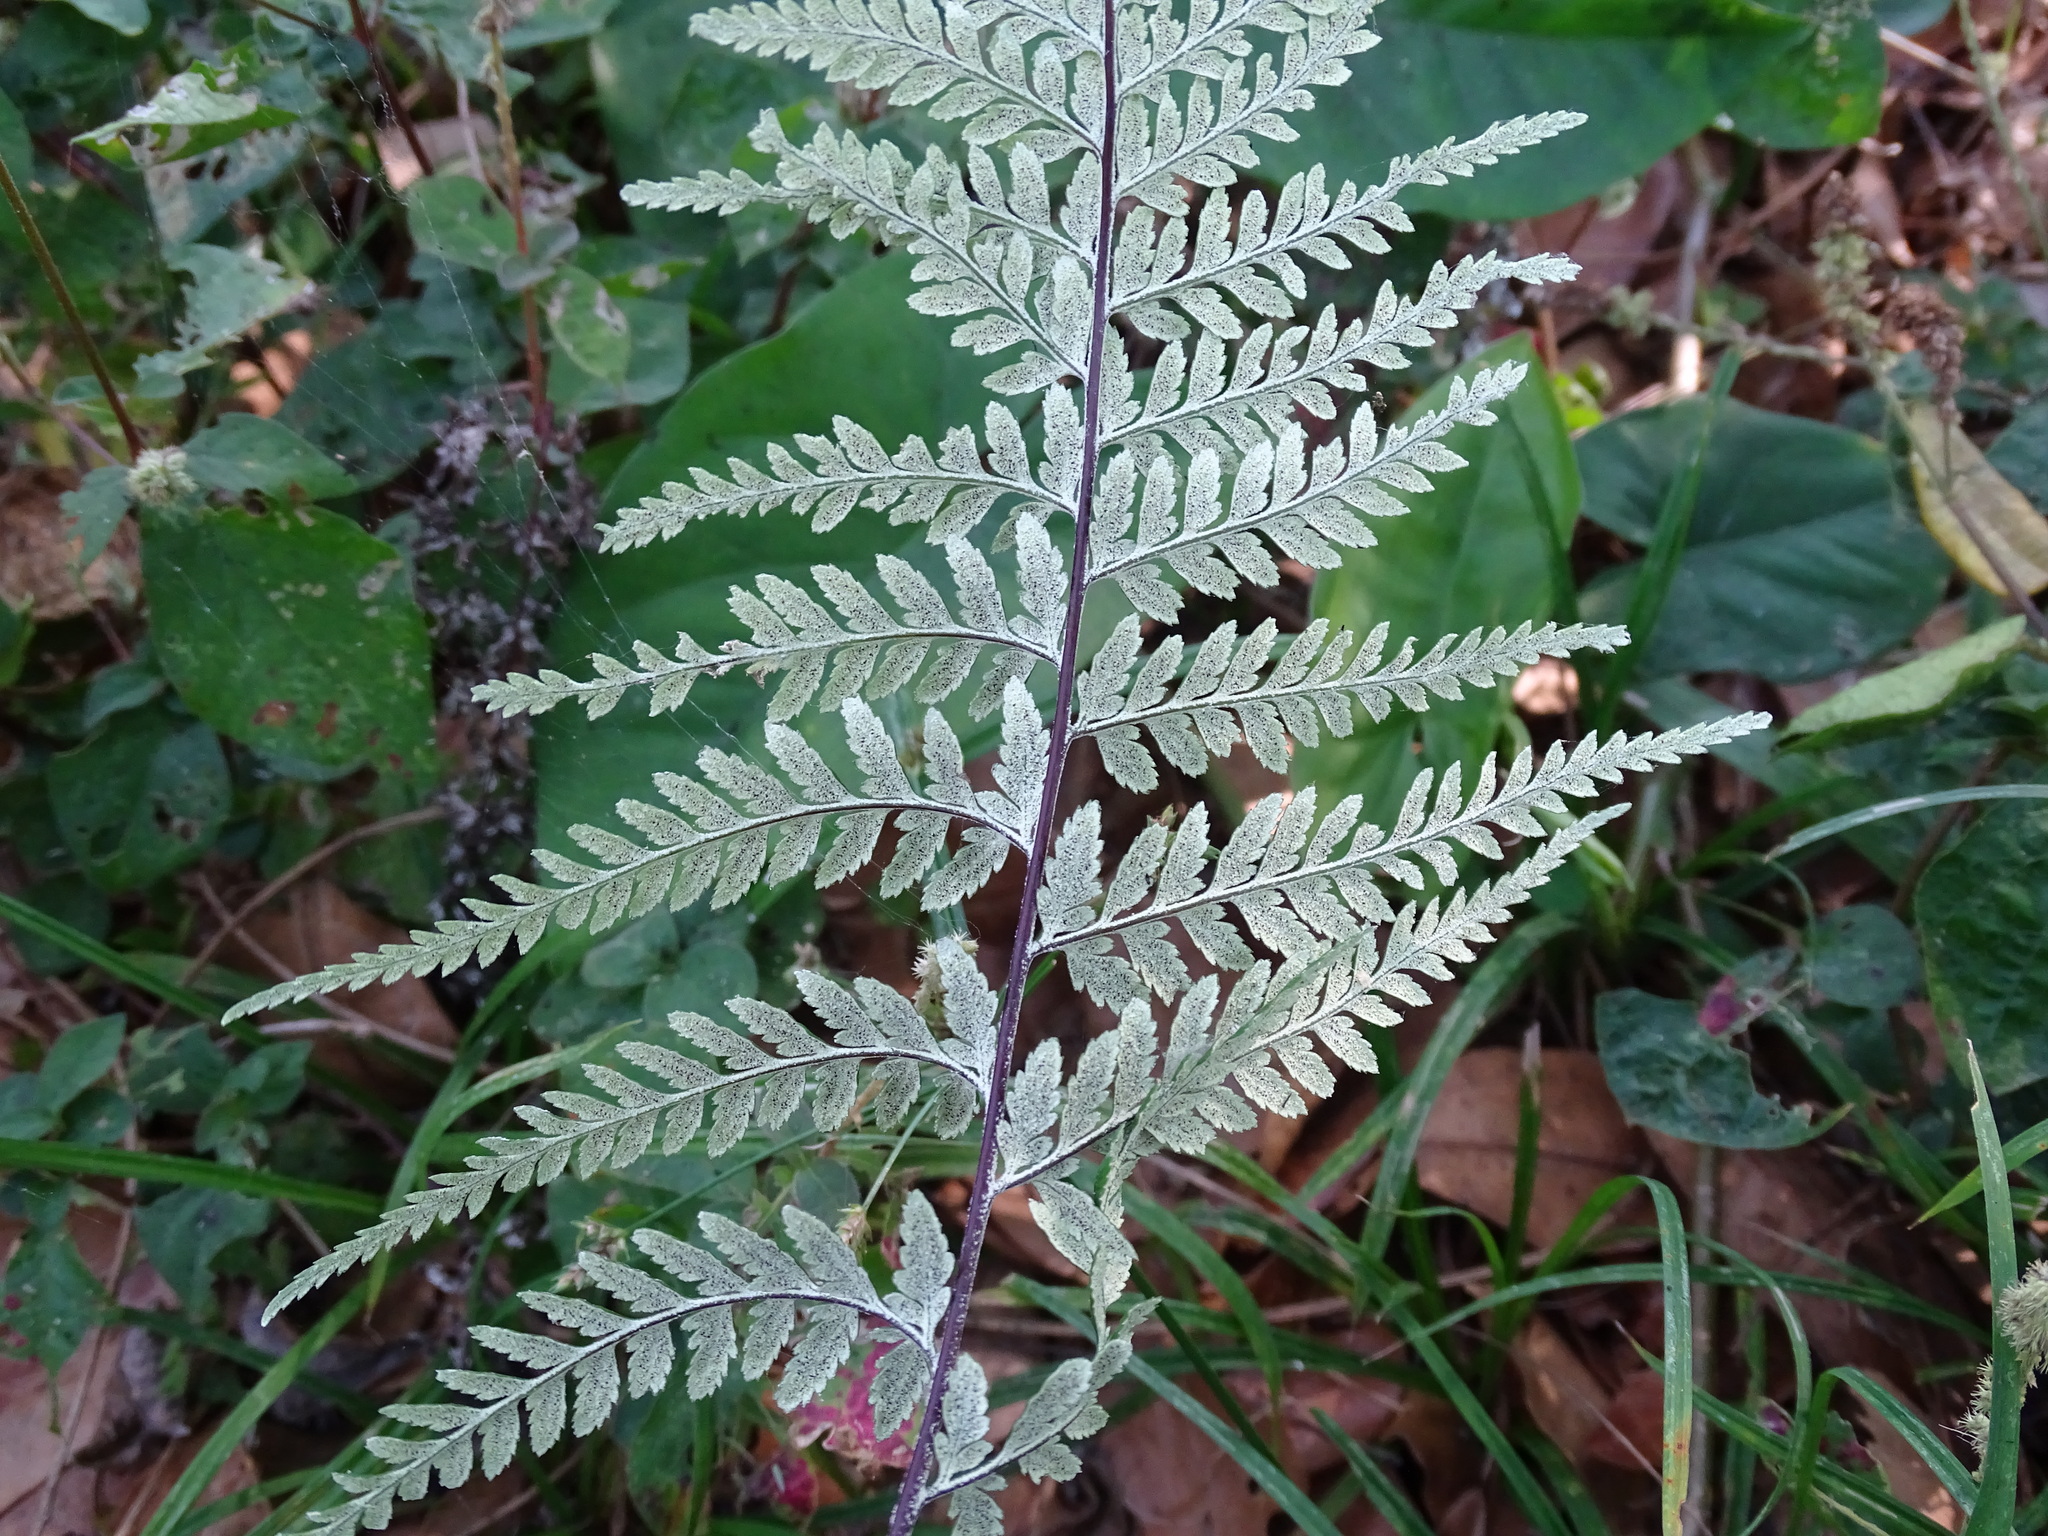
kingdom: Plantae
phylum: Tracheophyta
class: Polypodiopsida
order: Polypodiales
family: Pteridaceae
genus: Pityrogramma
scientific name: Pityrogramma calomelanos
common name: Dixie silverback fern
